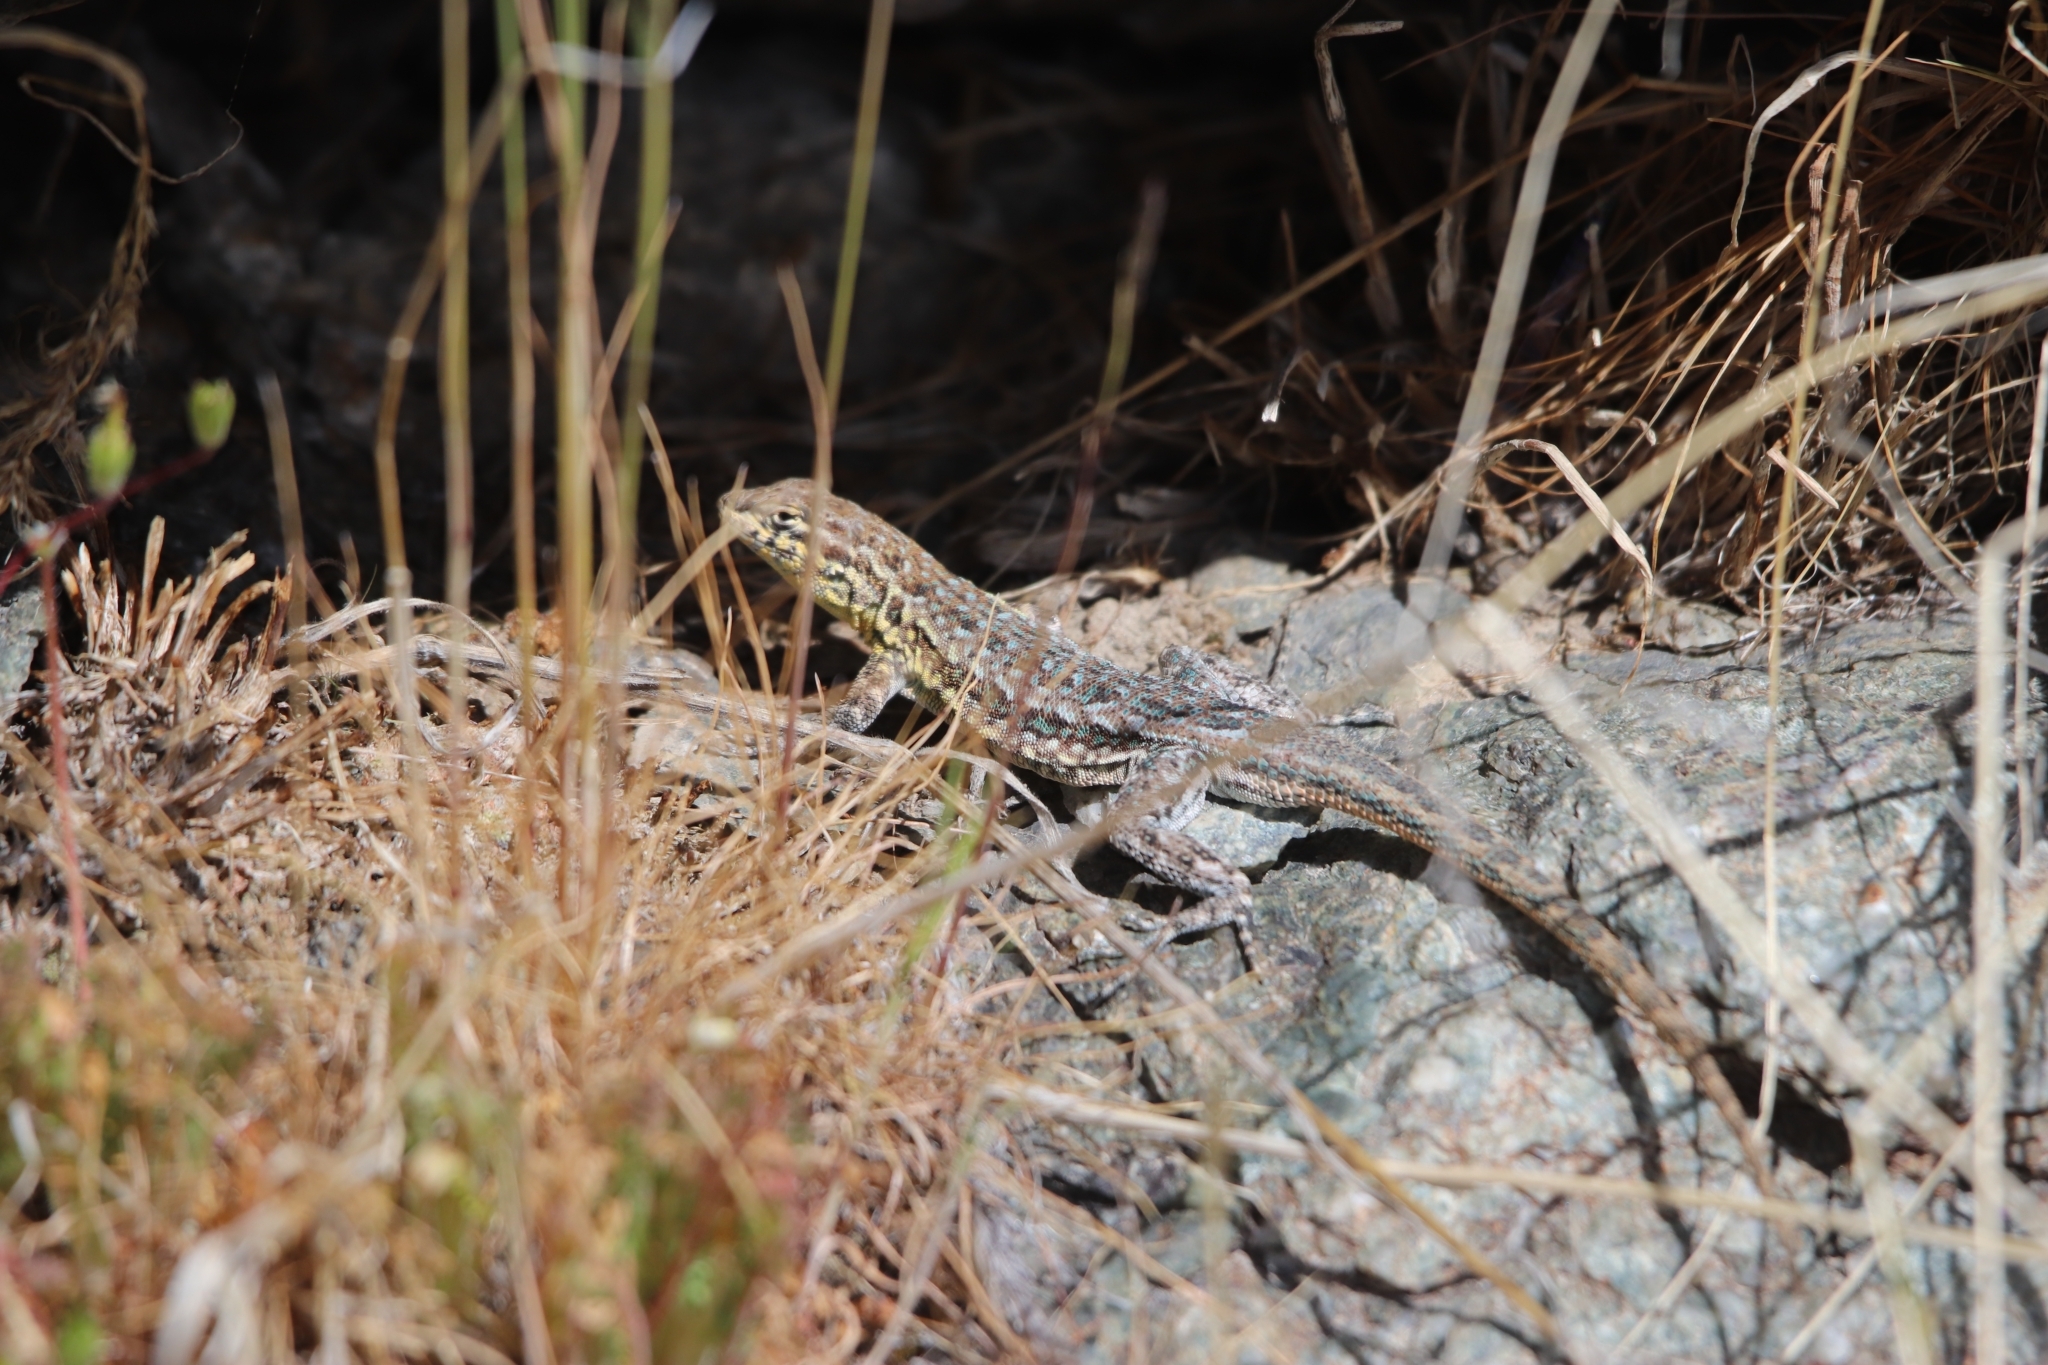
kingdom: Animalia
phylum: Chordata
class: Squamata
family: Phrynosomatidae
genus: Uta
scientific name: Uta stansburiana
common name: Side-blotched lizard
